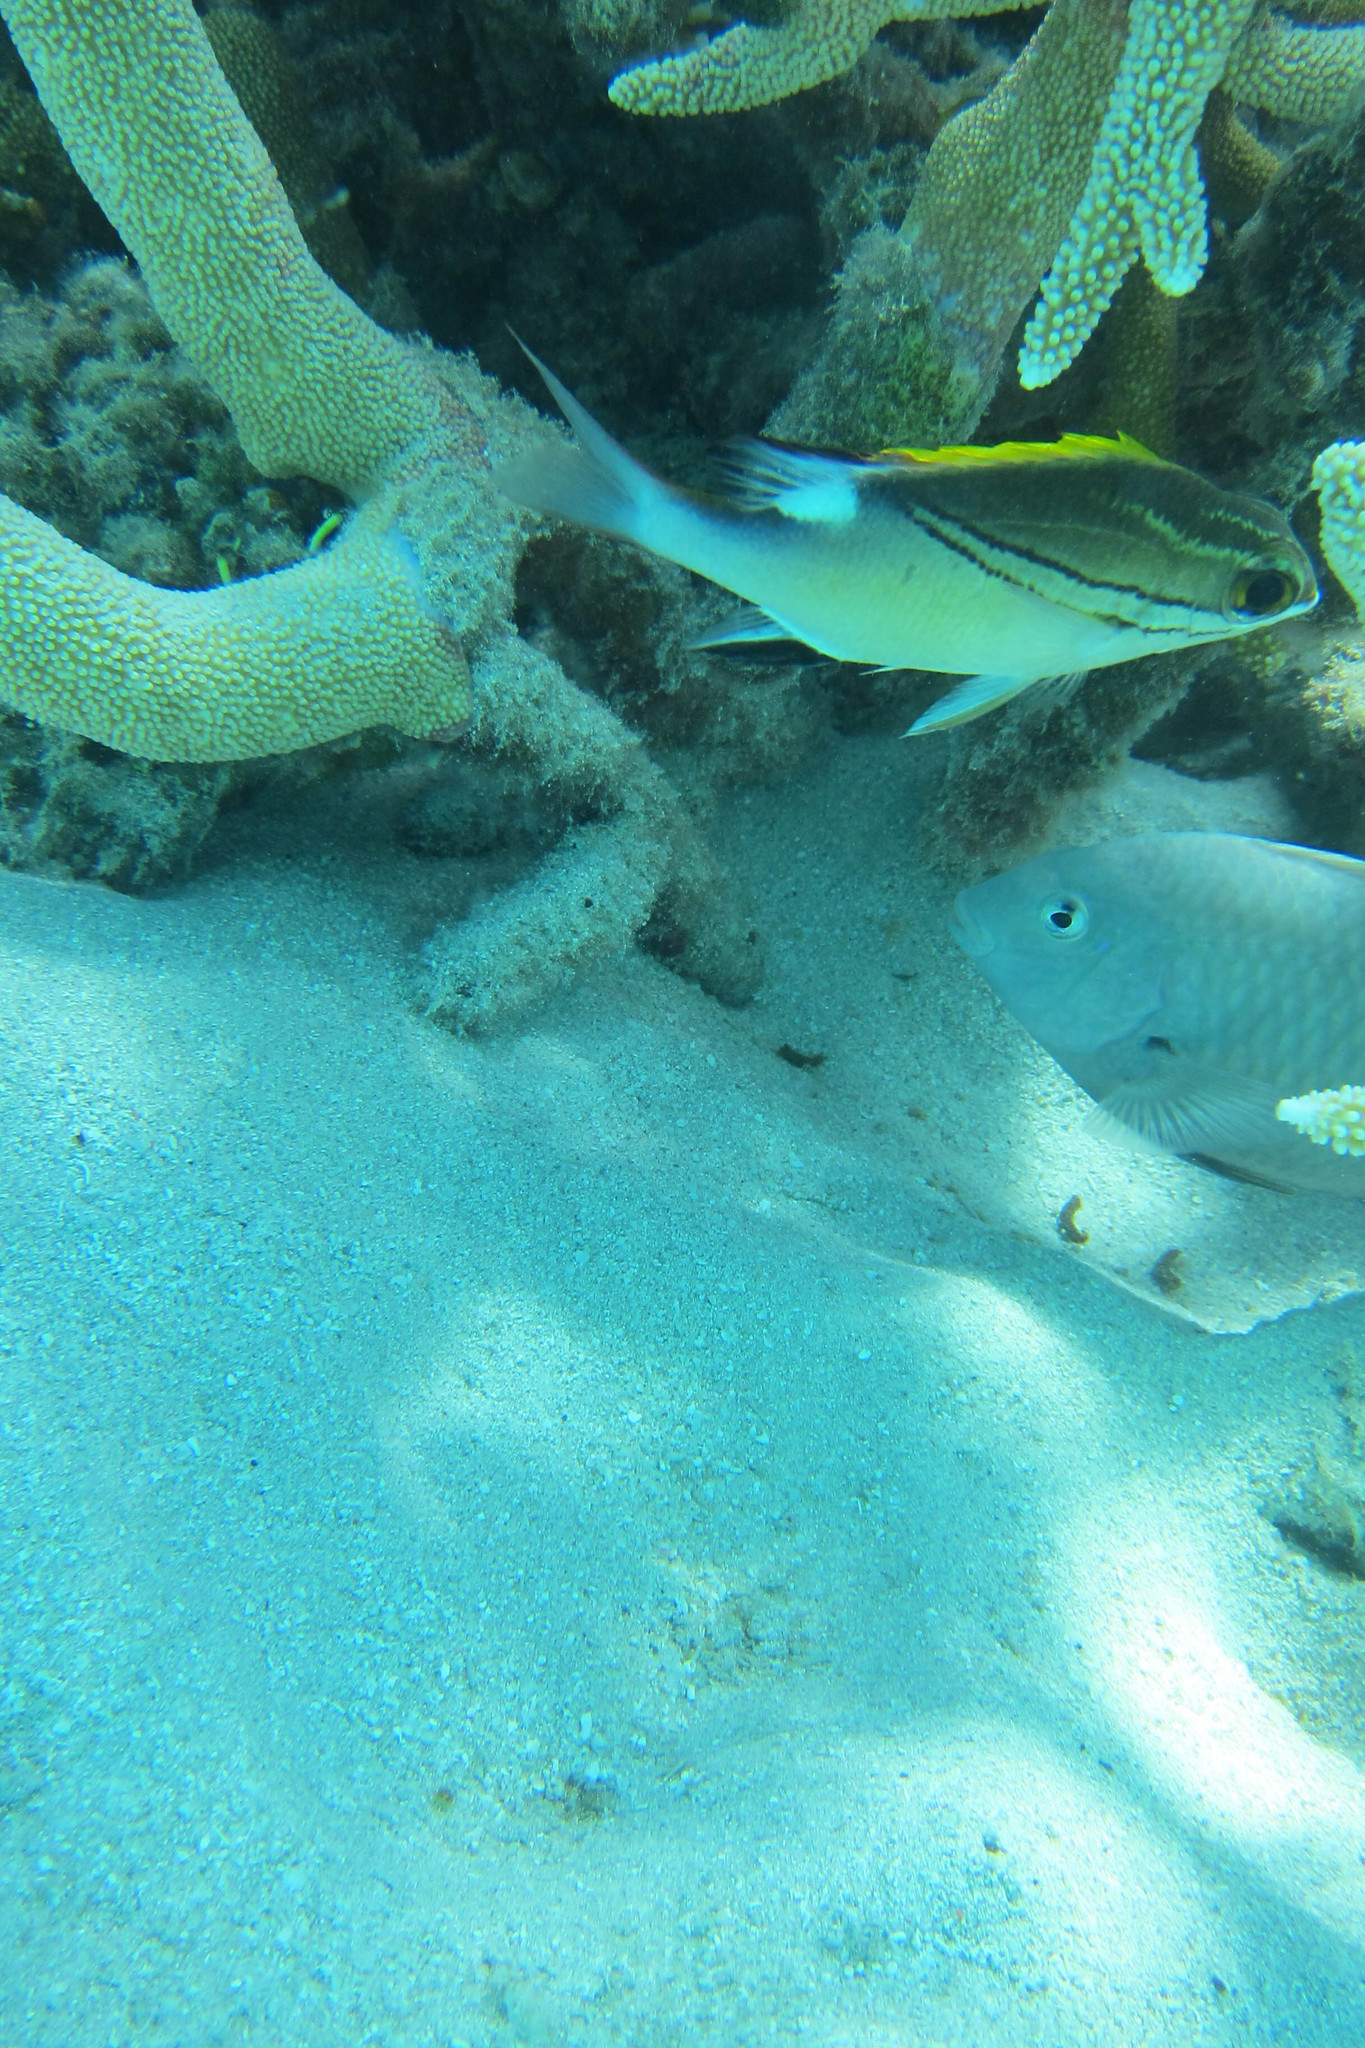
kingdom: Animalia
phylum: Chordata
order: Perciformes
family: Pomacentridae
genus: Hemiglyphidodon
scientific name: Hemiglyphidodon plagiometopon
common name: Lagoon damsel
